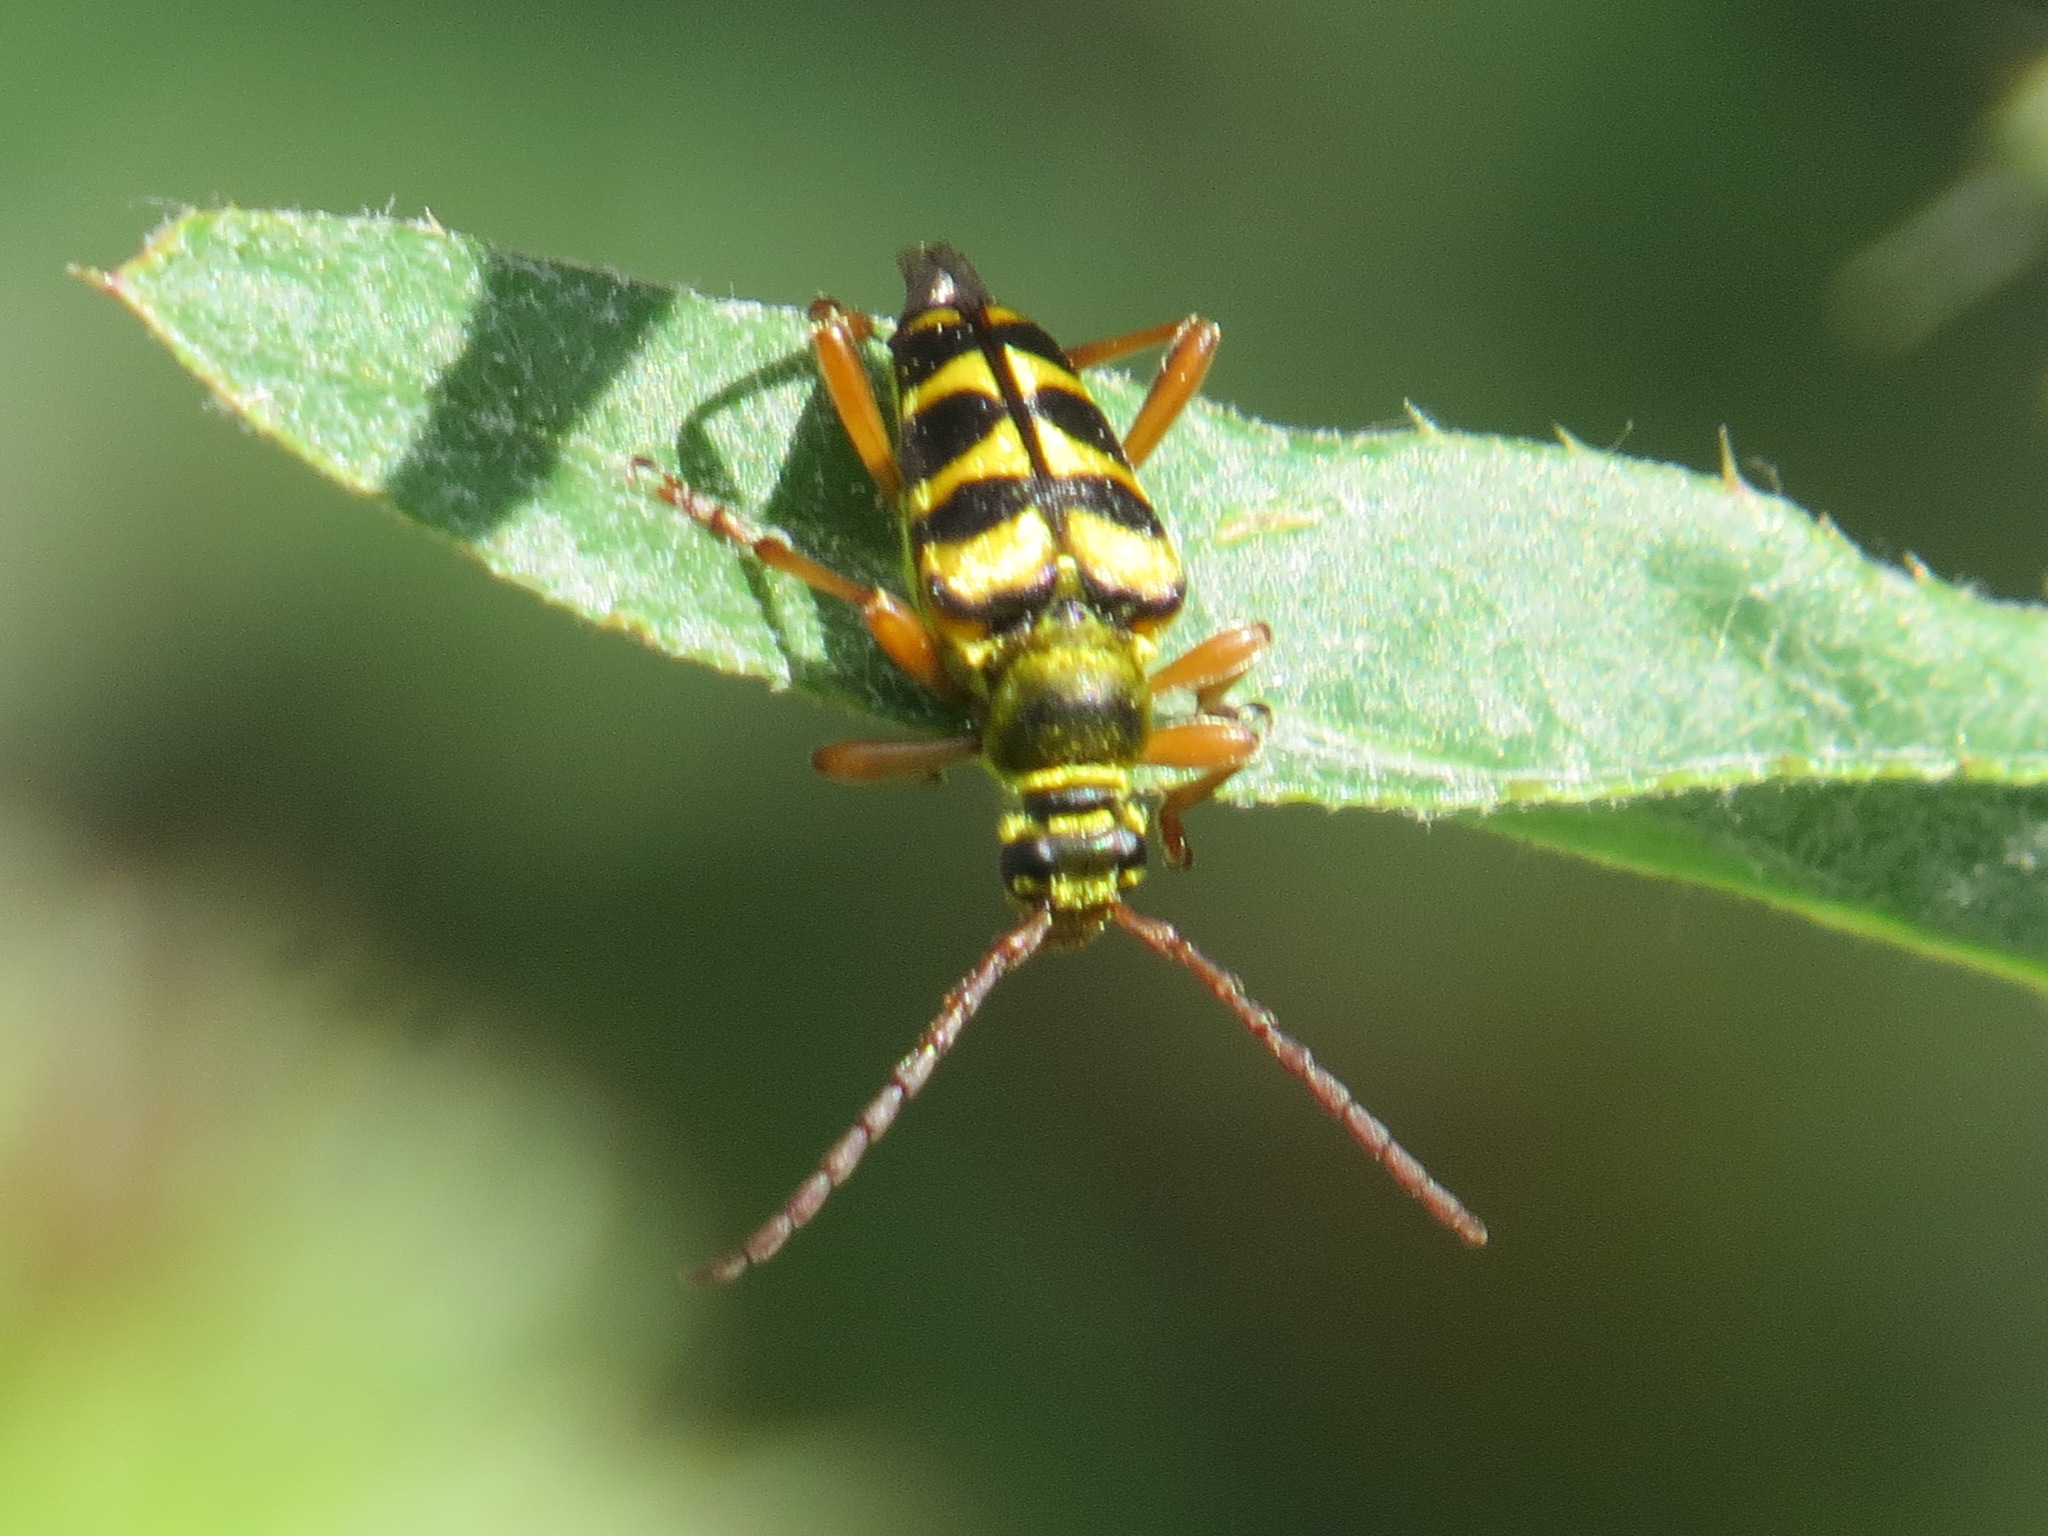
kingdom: Animalia
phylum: Arthropoda
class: Insecta
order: Coleoptera
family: Cerambycidae
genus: Strophiona
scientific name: Strophiona tigrina
